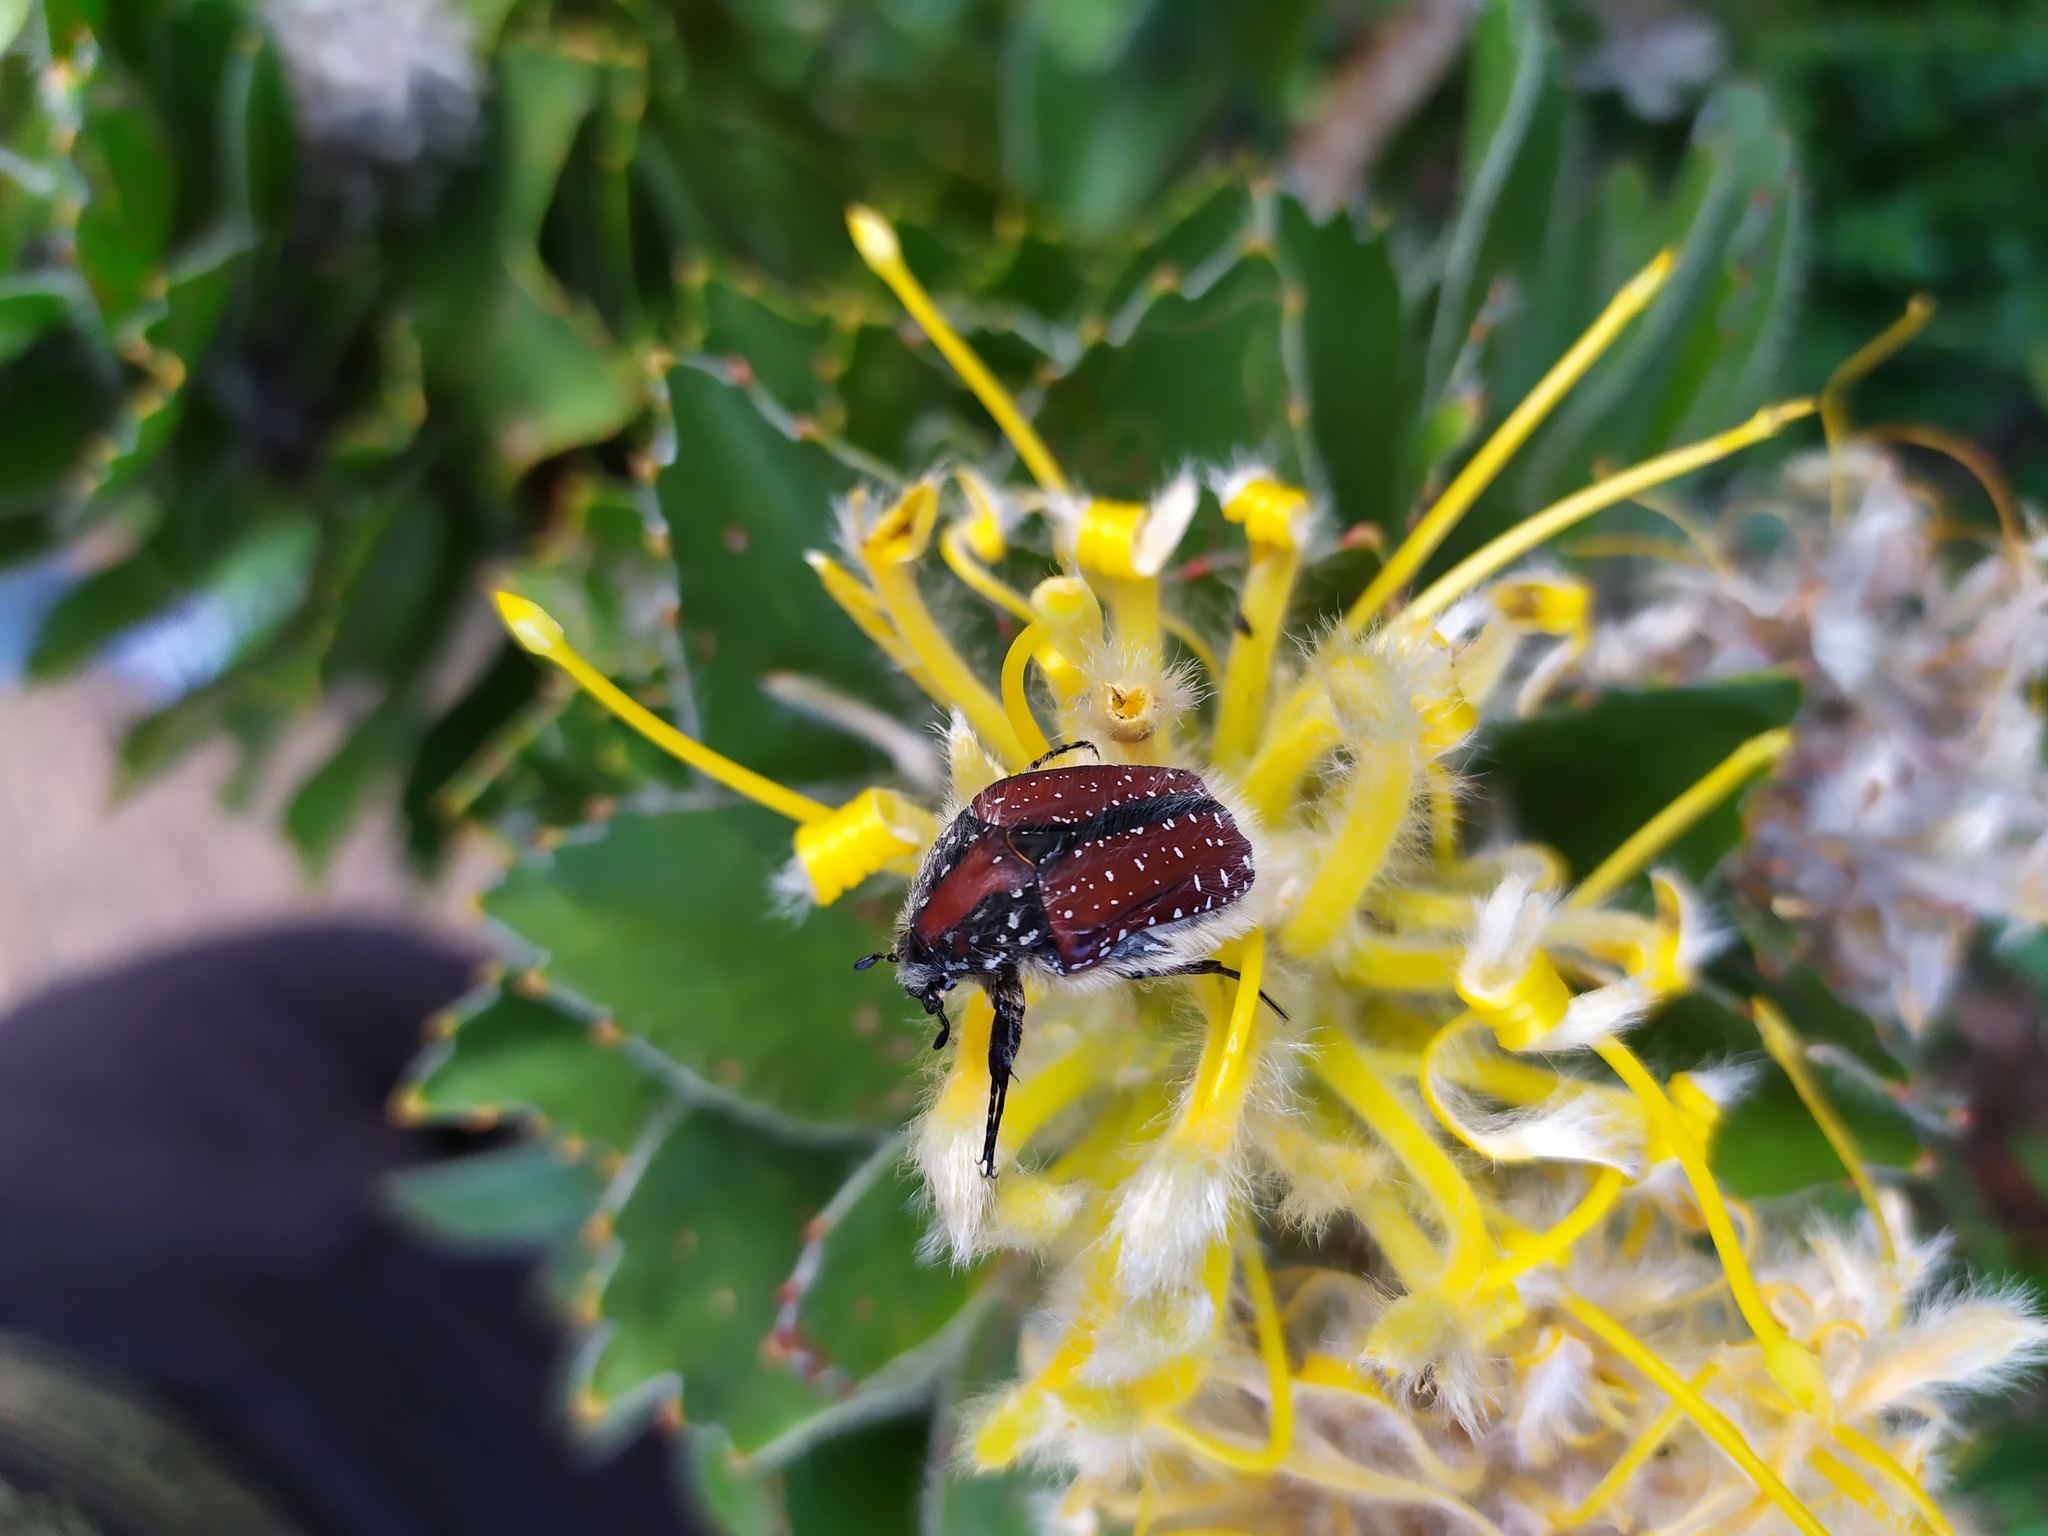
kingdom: Animalia
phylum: Arthropoda
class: Insecta
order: Coleoptera
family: Scarabaeidae
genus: Trichostetha
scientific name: Trichostetha capensis
